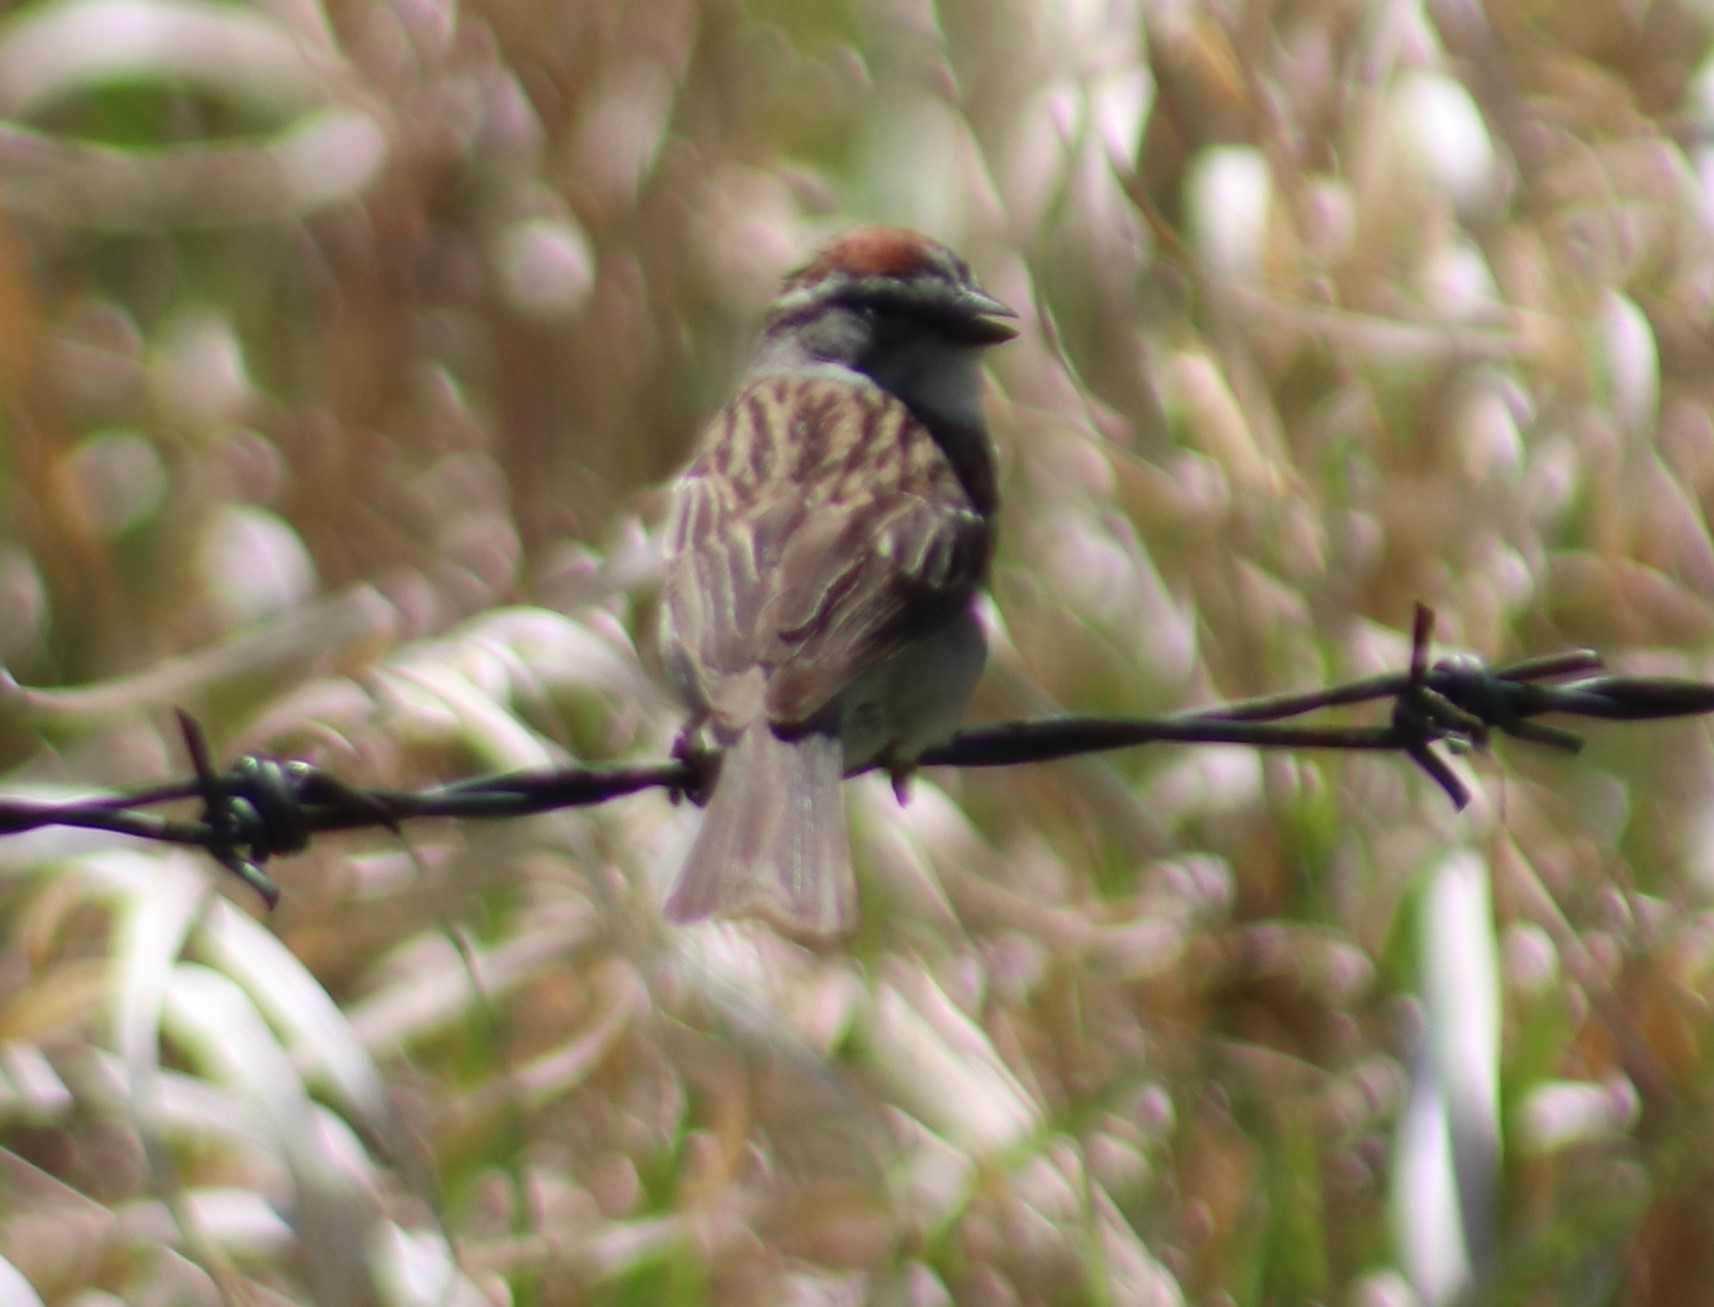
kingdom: Animalia
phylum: Chordata
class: Aves
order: Passeriformes
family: Passerellidae
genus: Spizella
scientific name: Spizella passerina
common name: Chipping sparrow
